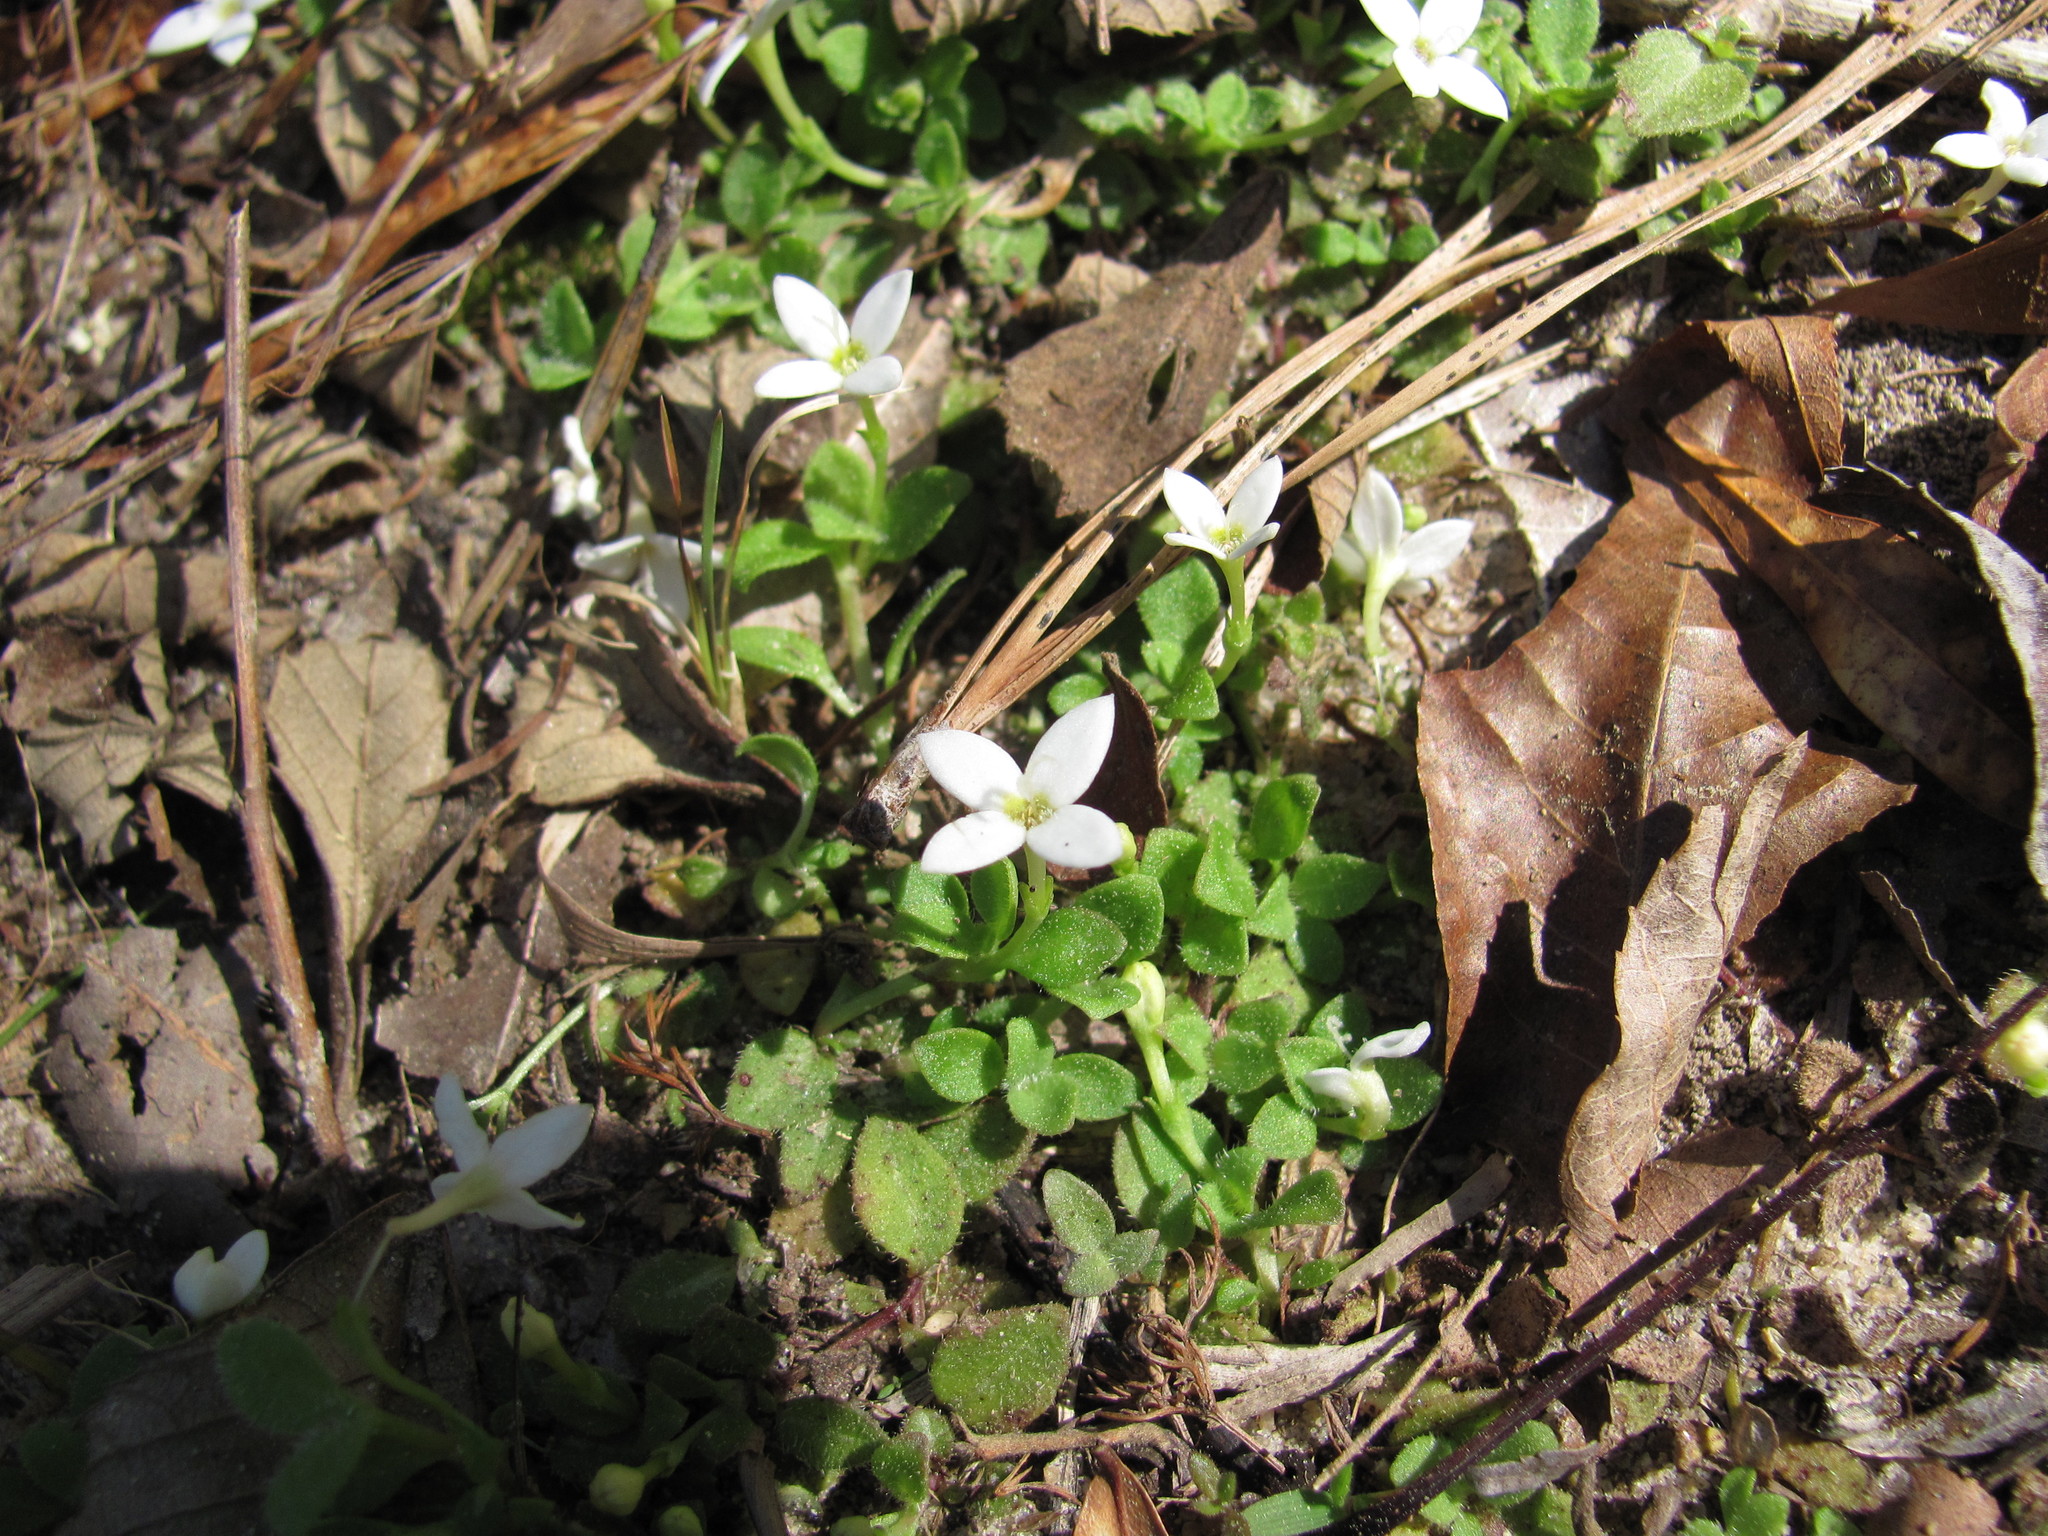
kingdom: Plantae
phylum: Tracheophyta
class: Magnoliopsida
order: Gentianales
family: Rubiaceae
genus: Houstonia
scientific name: Houstonia procumbens
